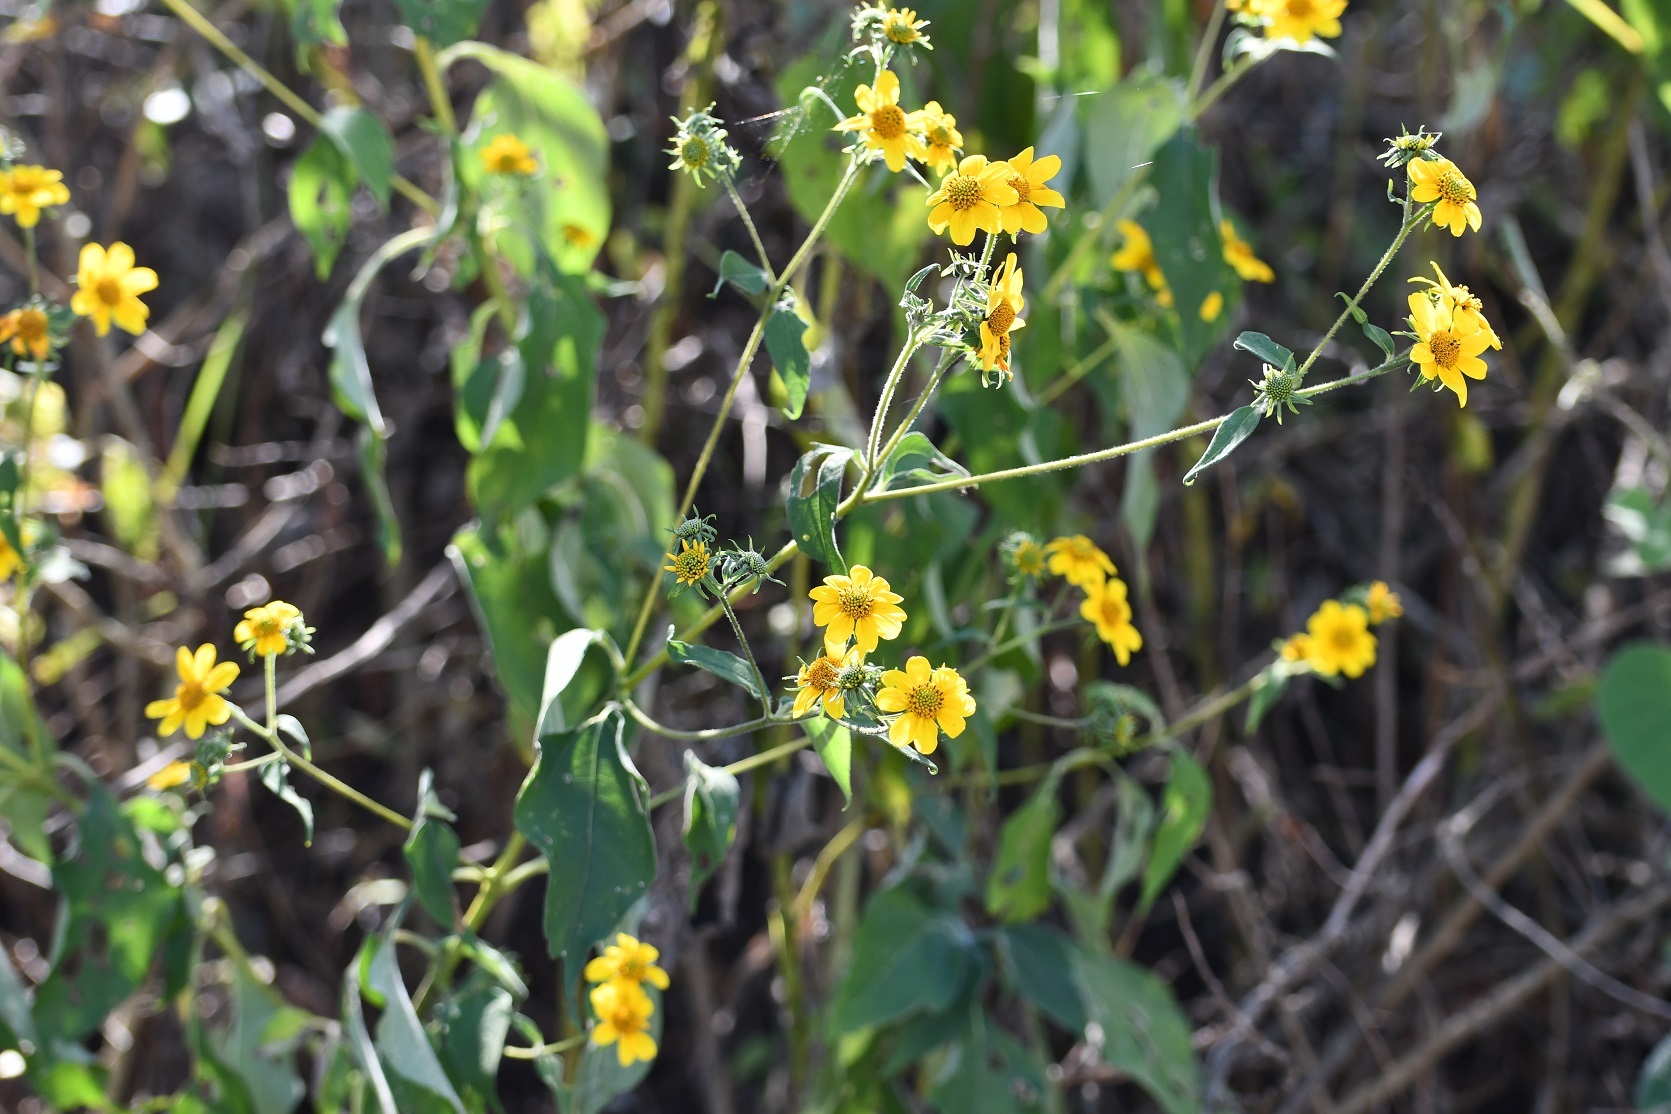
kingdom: Plantae
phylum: Tracheophyta
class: Magnoliopsida
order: Asterales
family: Asteraceae
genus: Verbesina
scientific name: Verbesina hypoglauca
